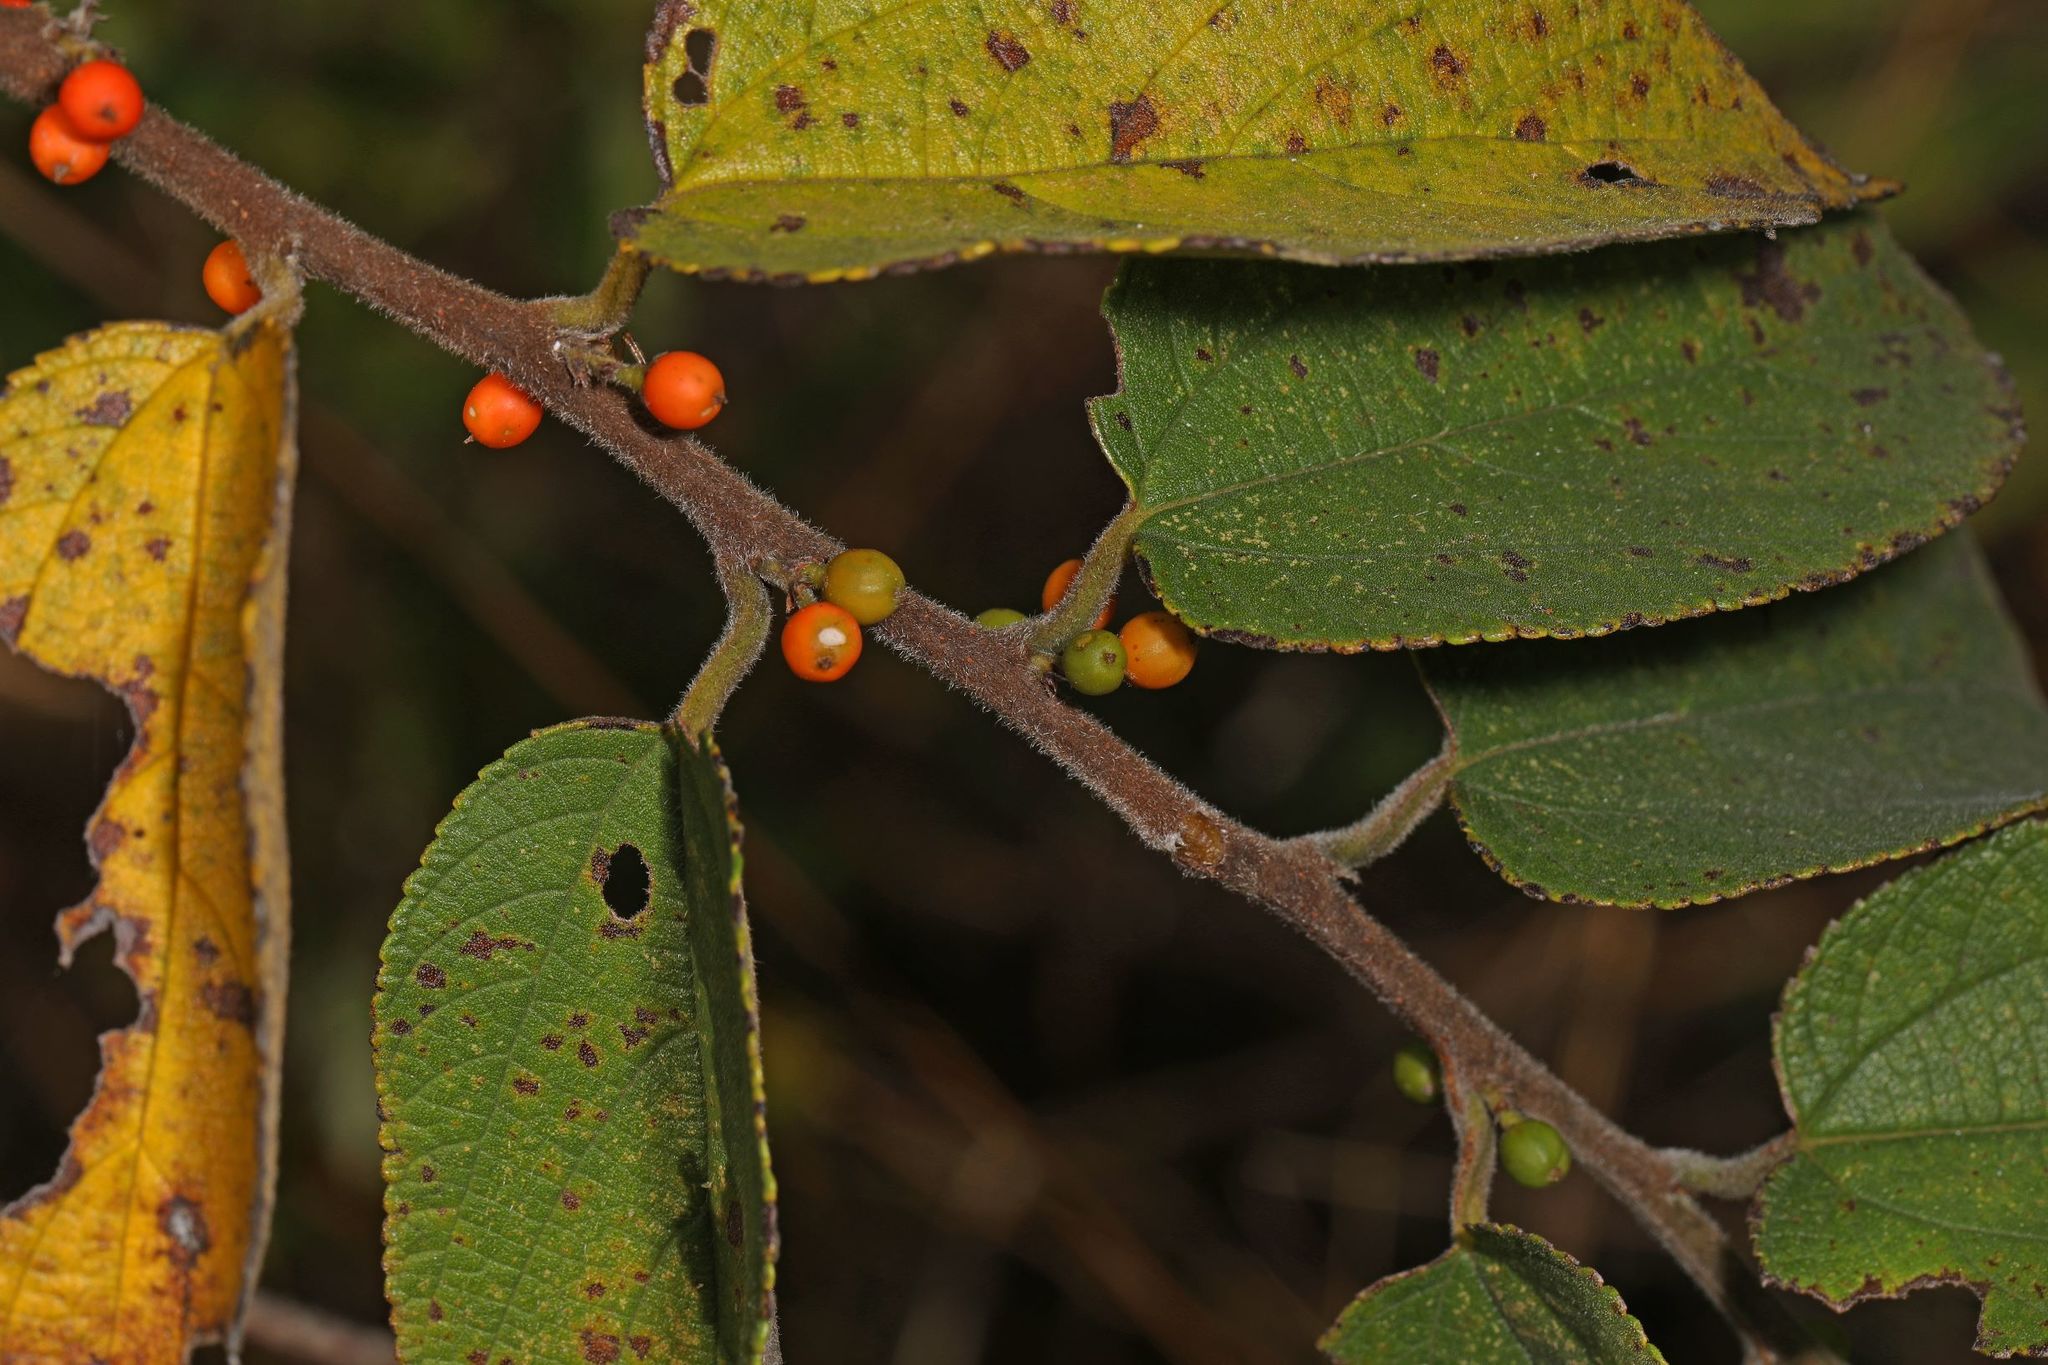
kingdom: Plantae
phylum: Tracheophyta
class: Magnoliopsida
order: Rosales
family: Cannabaceae
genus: Trema
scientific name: Trema micranthum
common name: Jamaican nettletree
